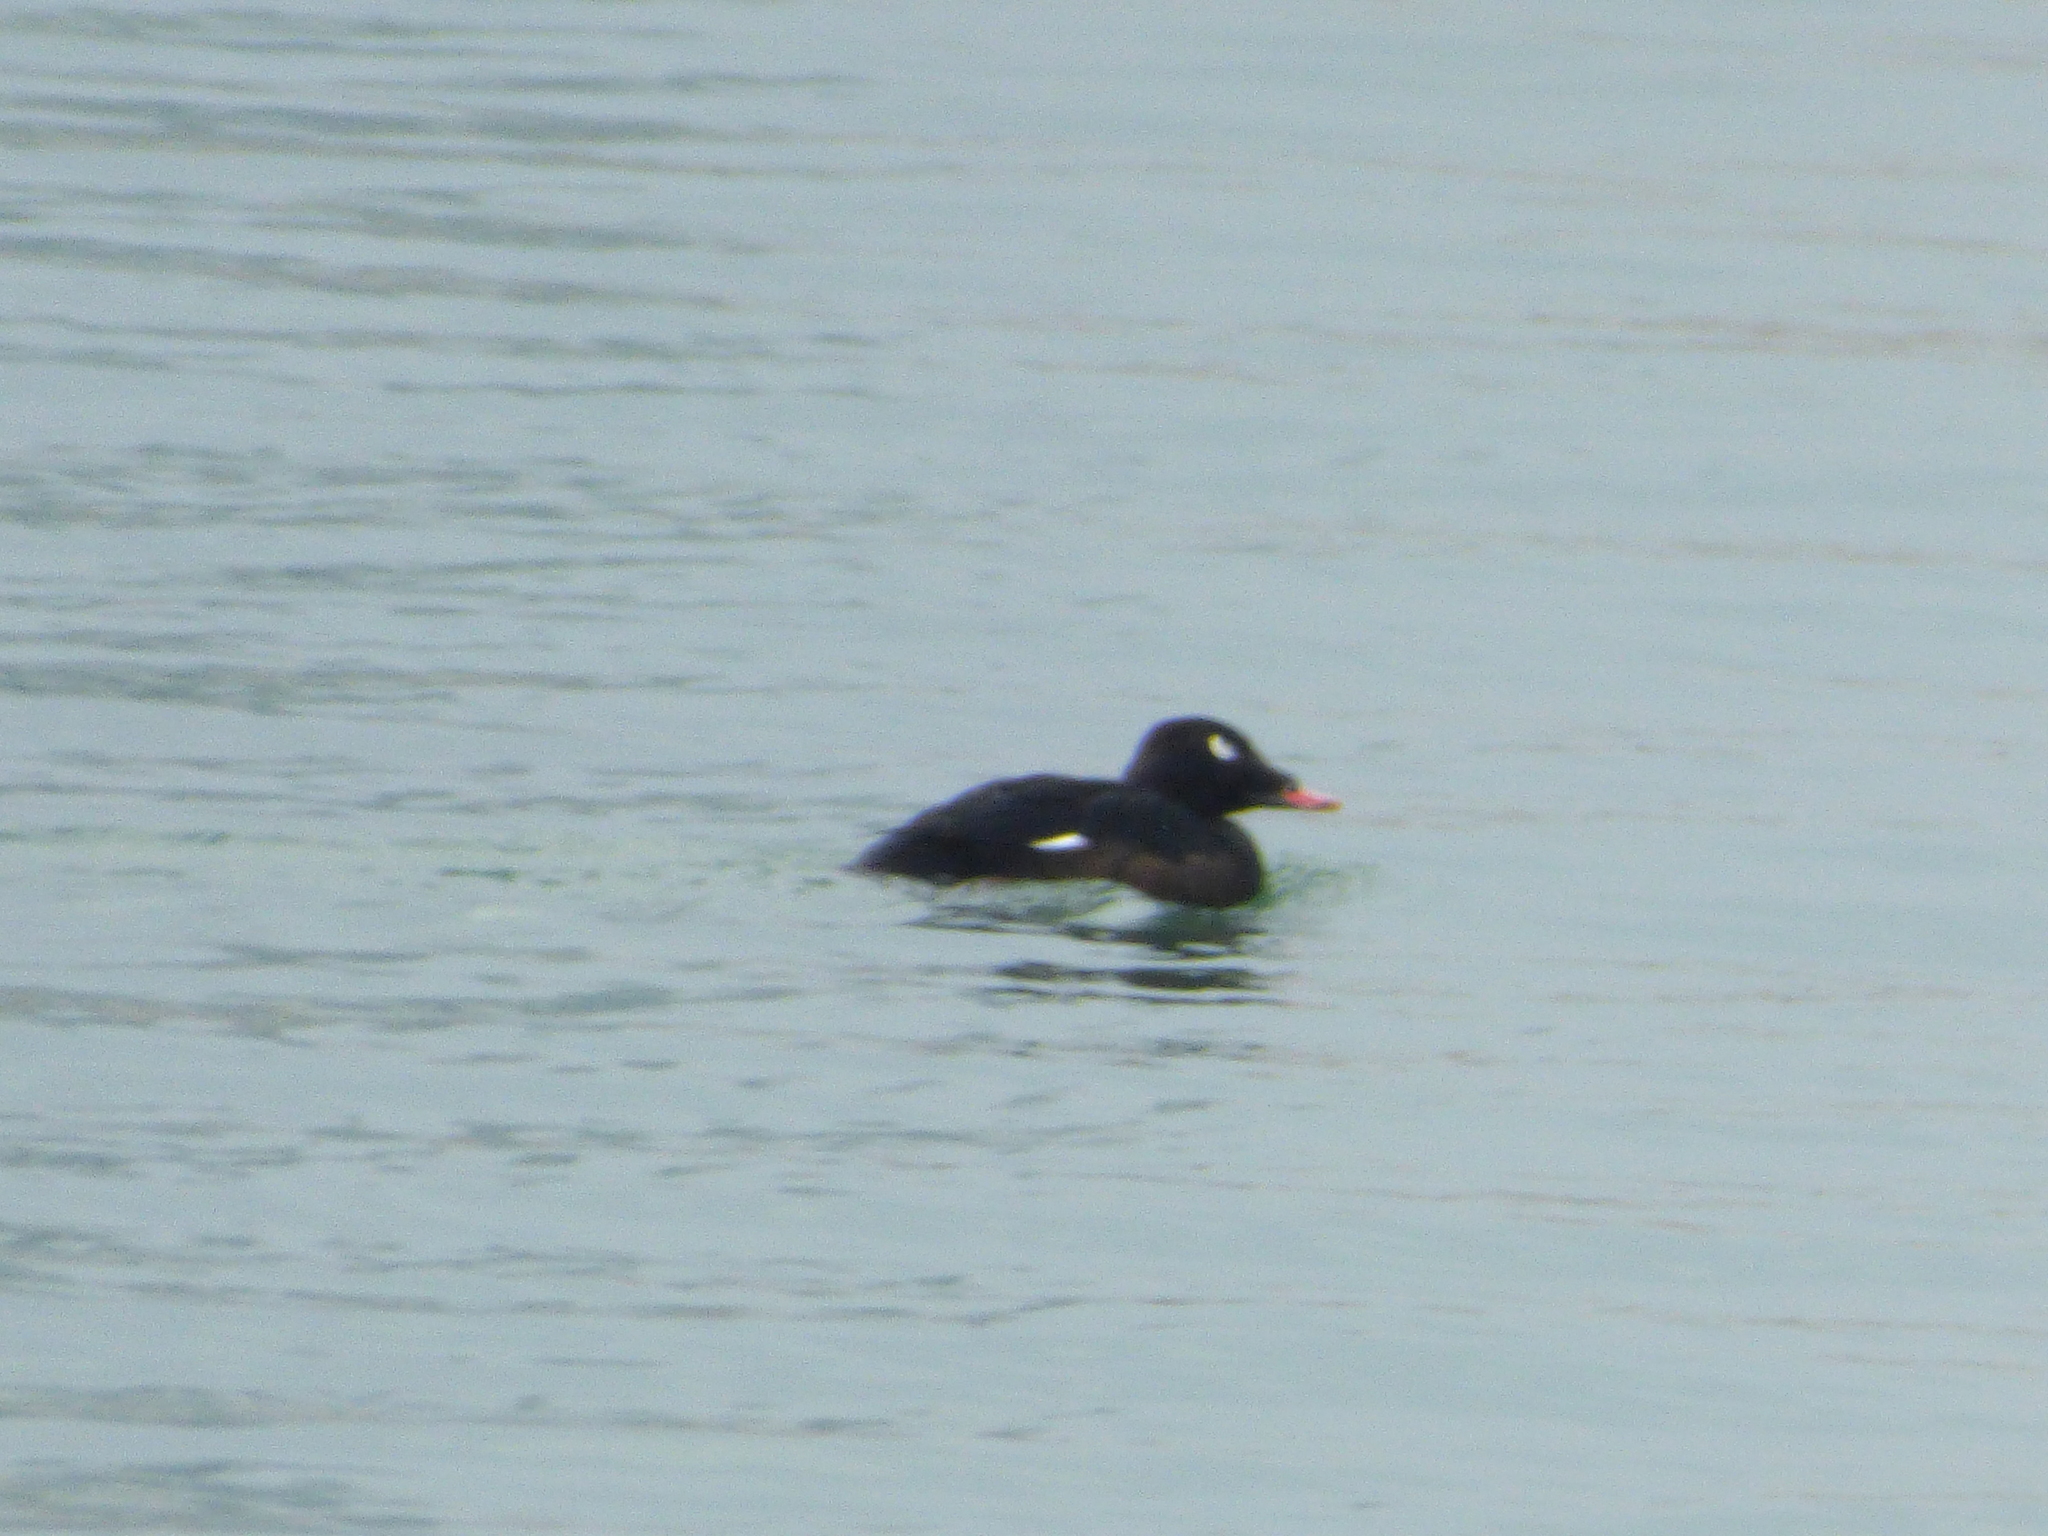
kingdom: Animalia
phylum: Chordata
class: Aves
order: Anseriformes
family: Anatidae
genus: Melanitta
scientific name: Melanitta deglandi
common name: White-winged scoter
